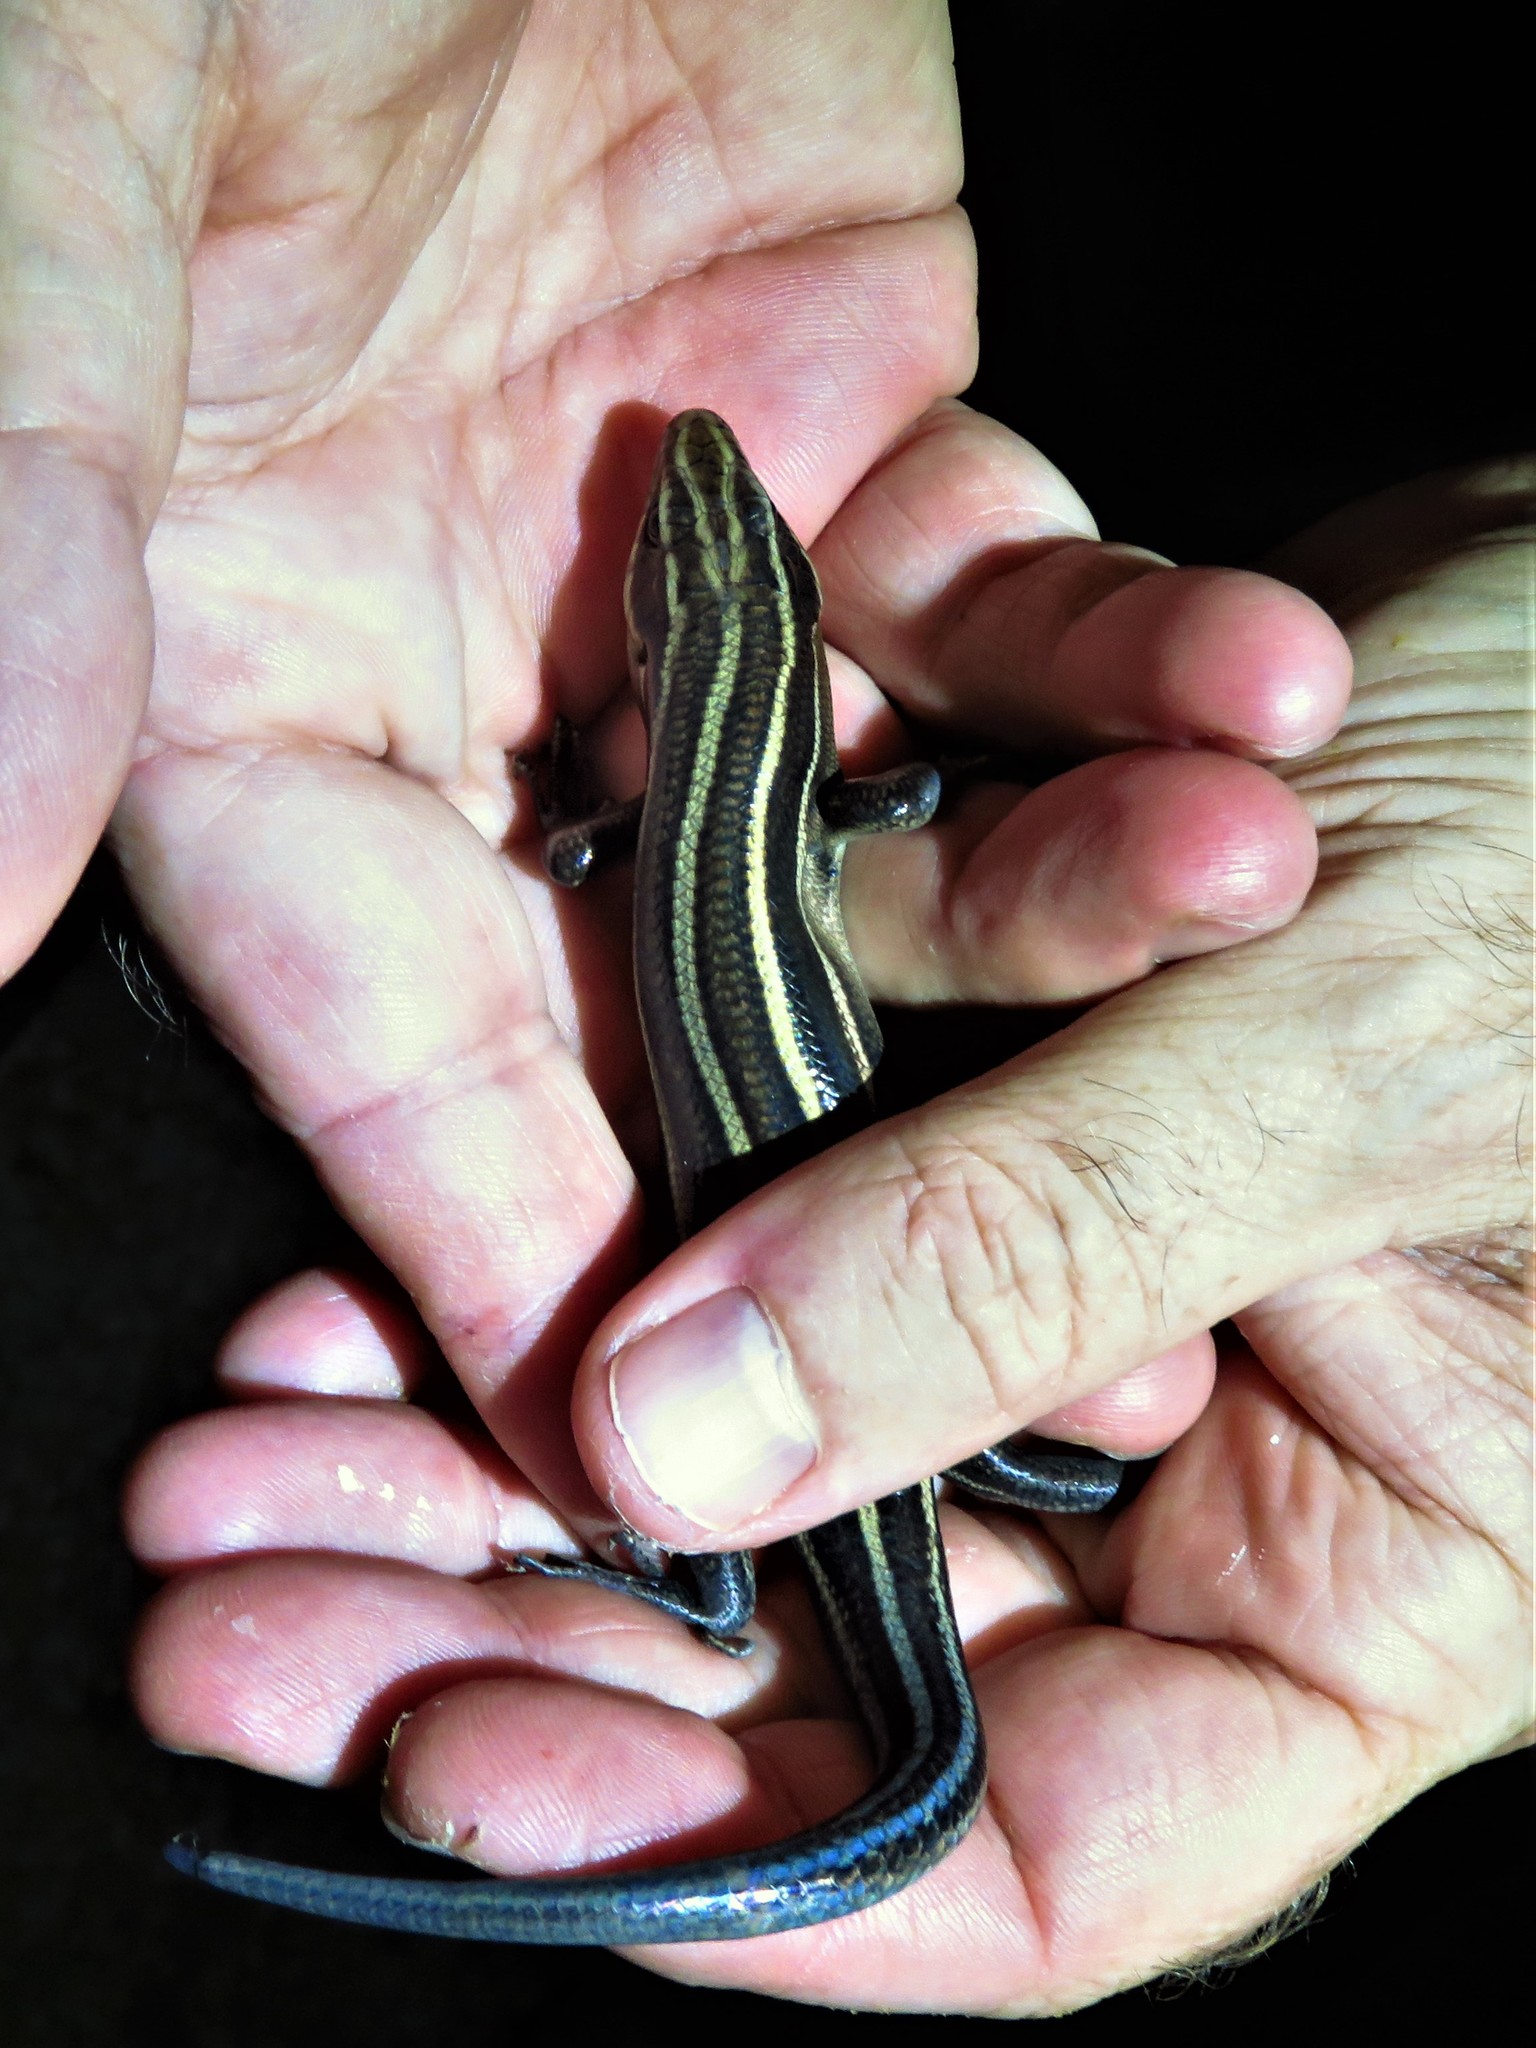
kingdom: Animalia
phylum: Chordata
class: Squamata
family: Scincidae
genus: Plestiodon
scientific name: Plestiodon fasciatus
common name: Five-lined skink
